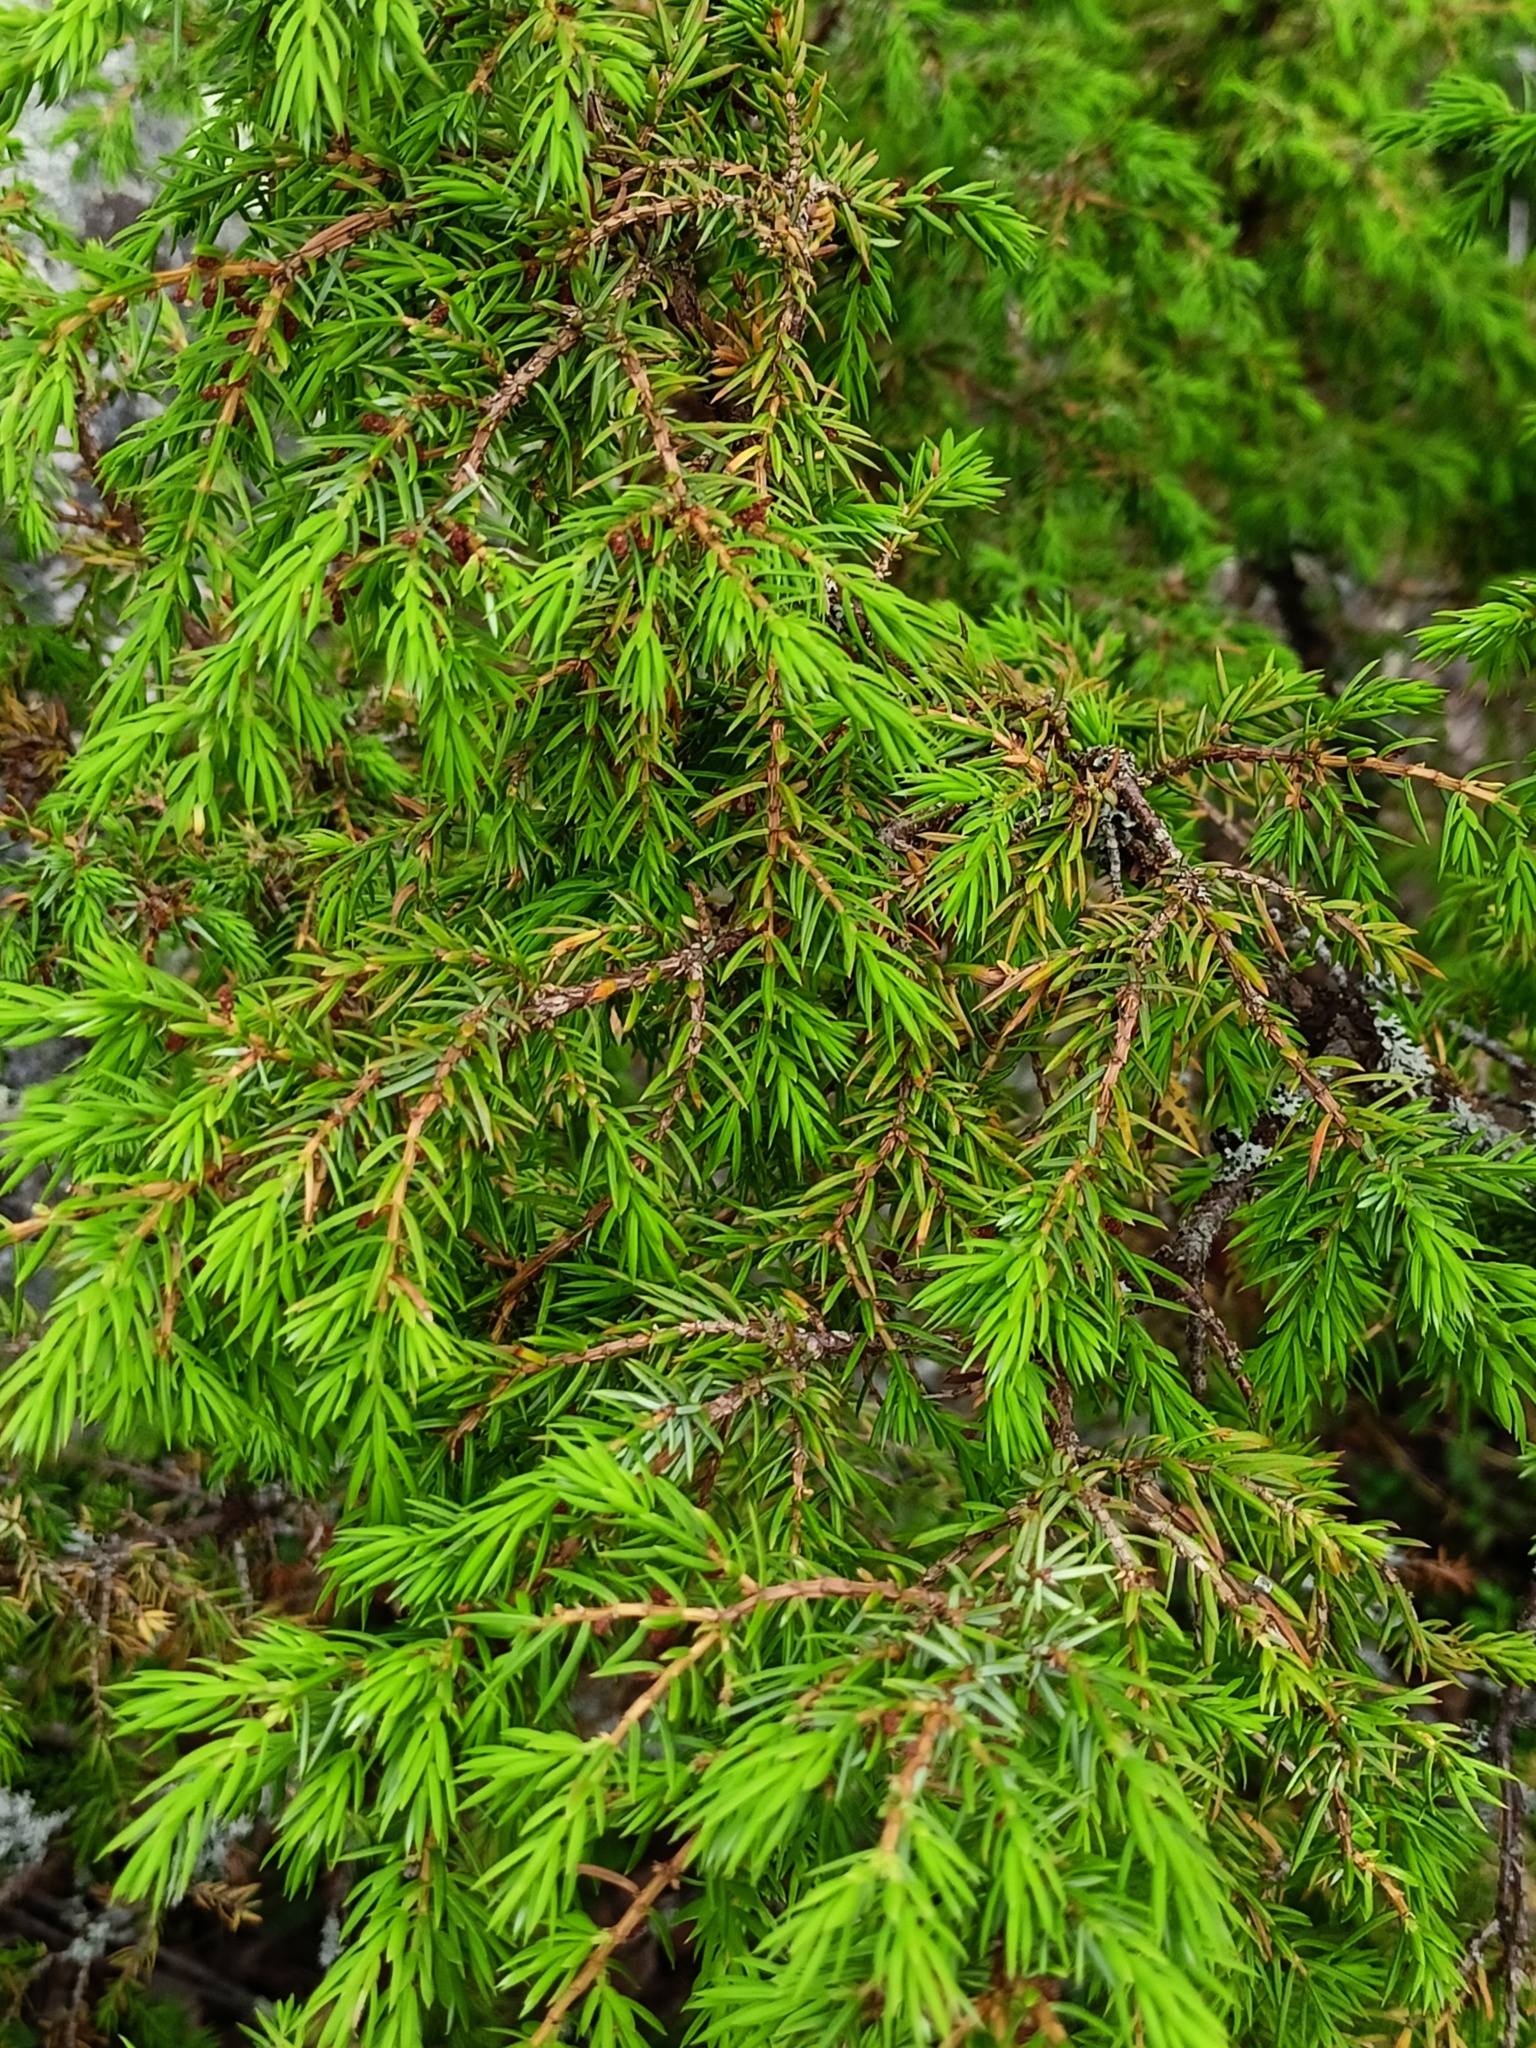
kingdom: Plantae
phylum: Tracheophyta
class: Pinopsida
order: Pinales
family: Cupressaceae
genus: Juniperus
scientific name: Juniperus communis
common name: Common juniper
